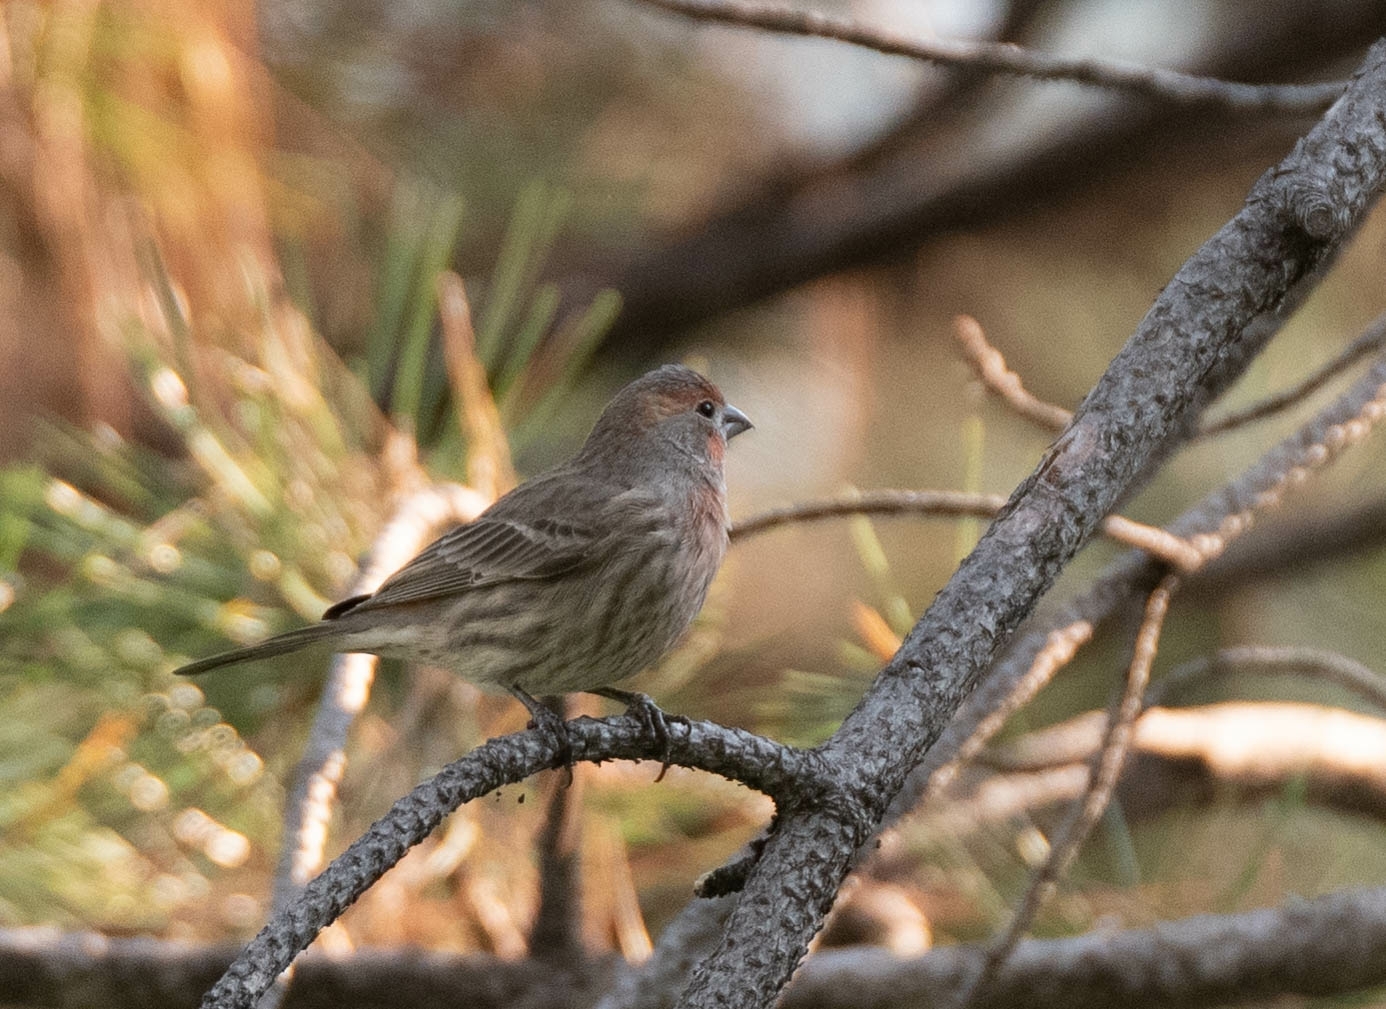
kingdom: Animalia
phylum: Chordata
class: Aves
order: Passeriformes
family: Fringillidae
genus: Haemorhous
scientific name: Haemorhous mexicanus
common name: House finch
